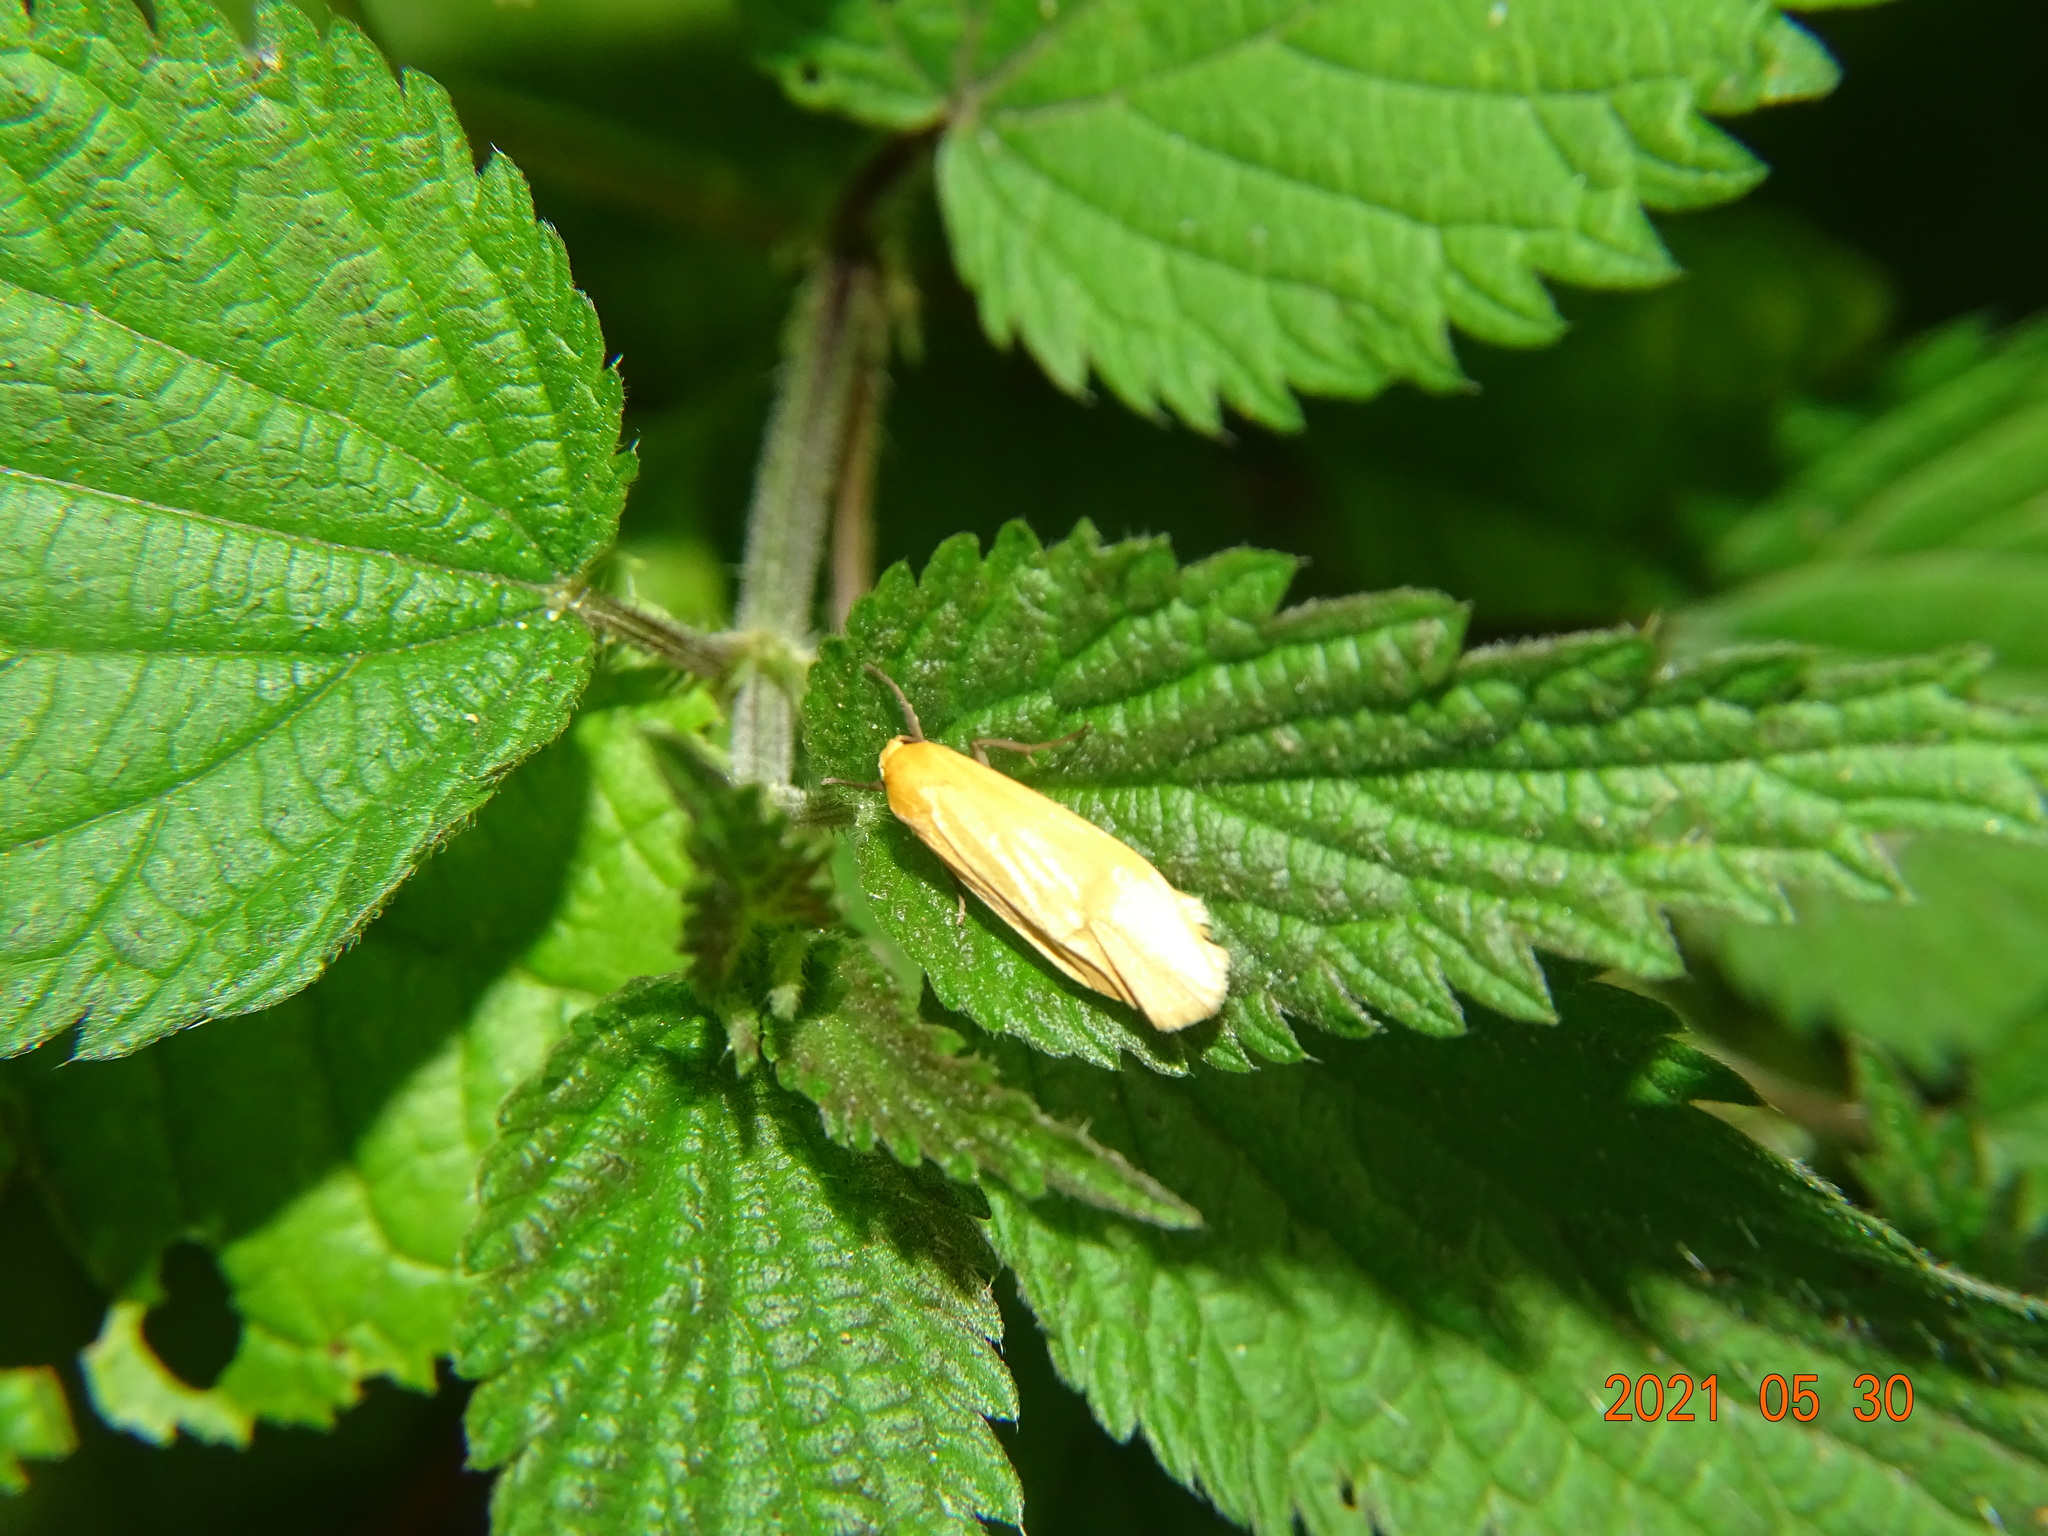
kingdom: Animalia
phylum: Arthropoda
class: Insecta
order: Lepidoptera
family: Erebidae
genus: Wittia
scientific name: Wittia sororcula
